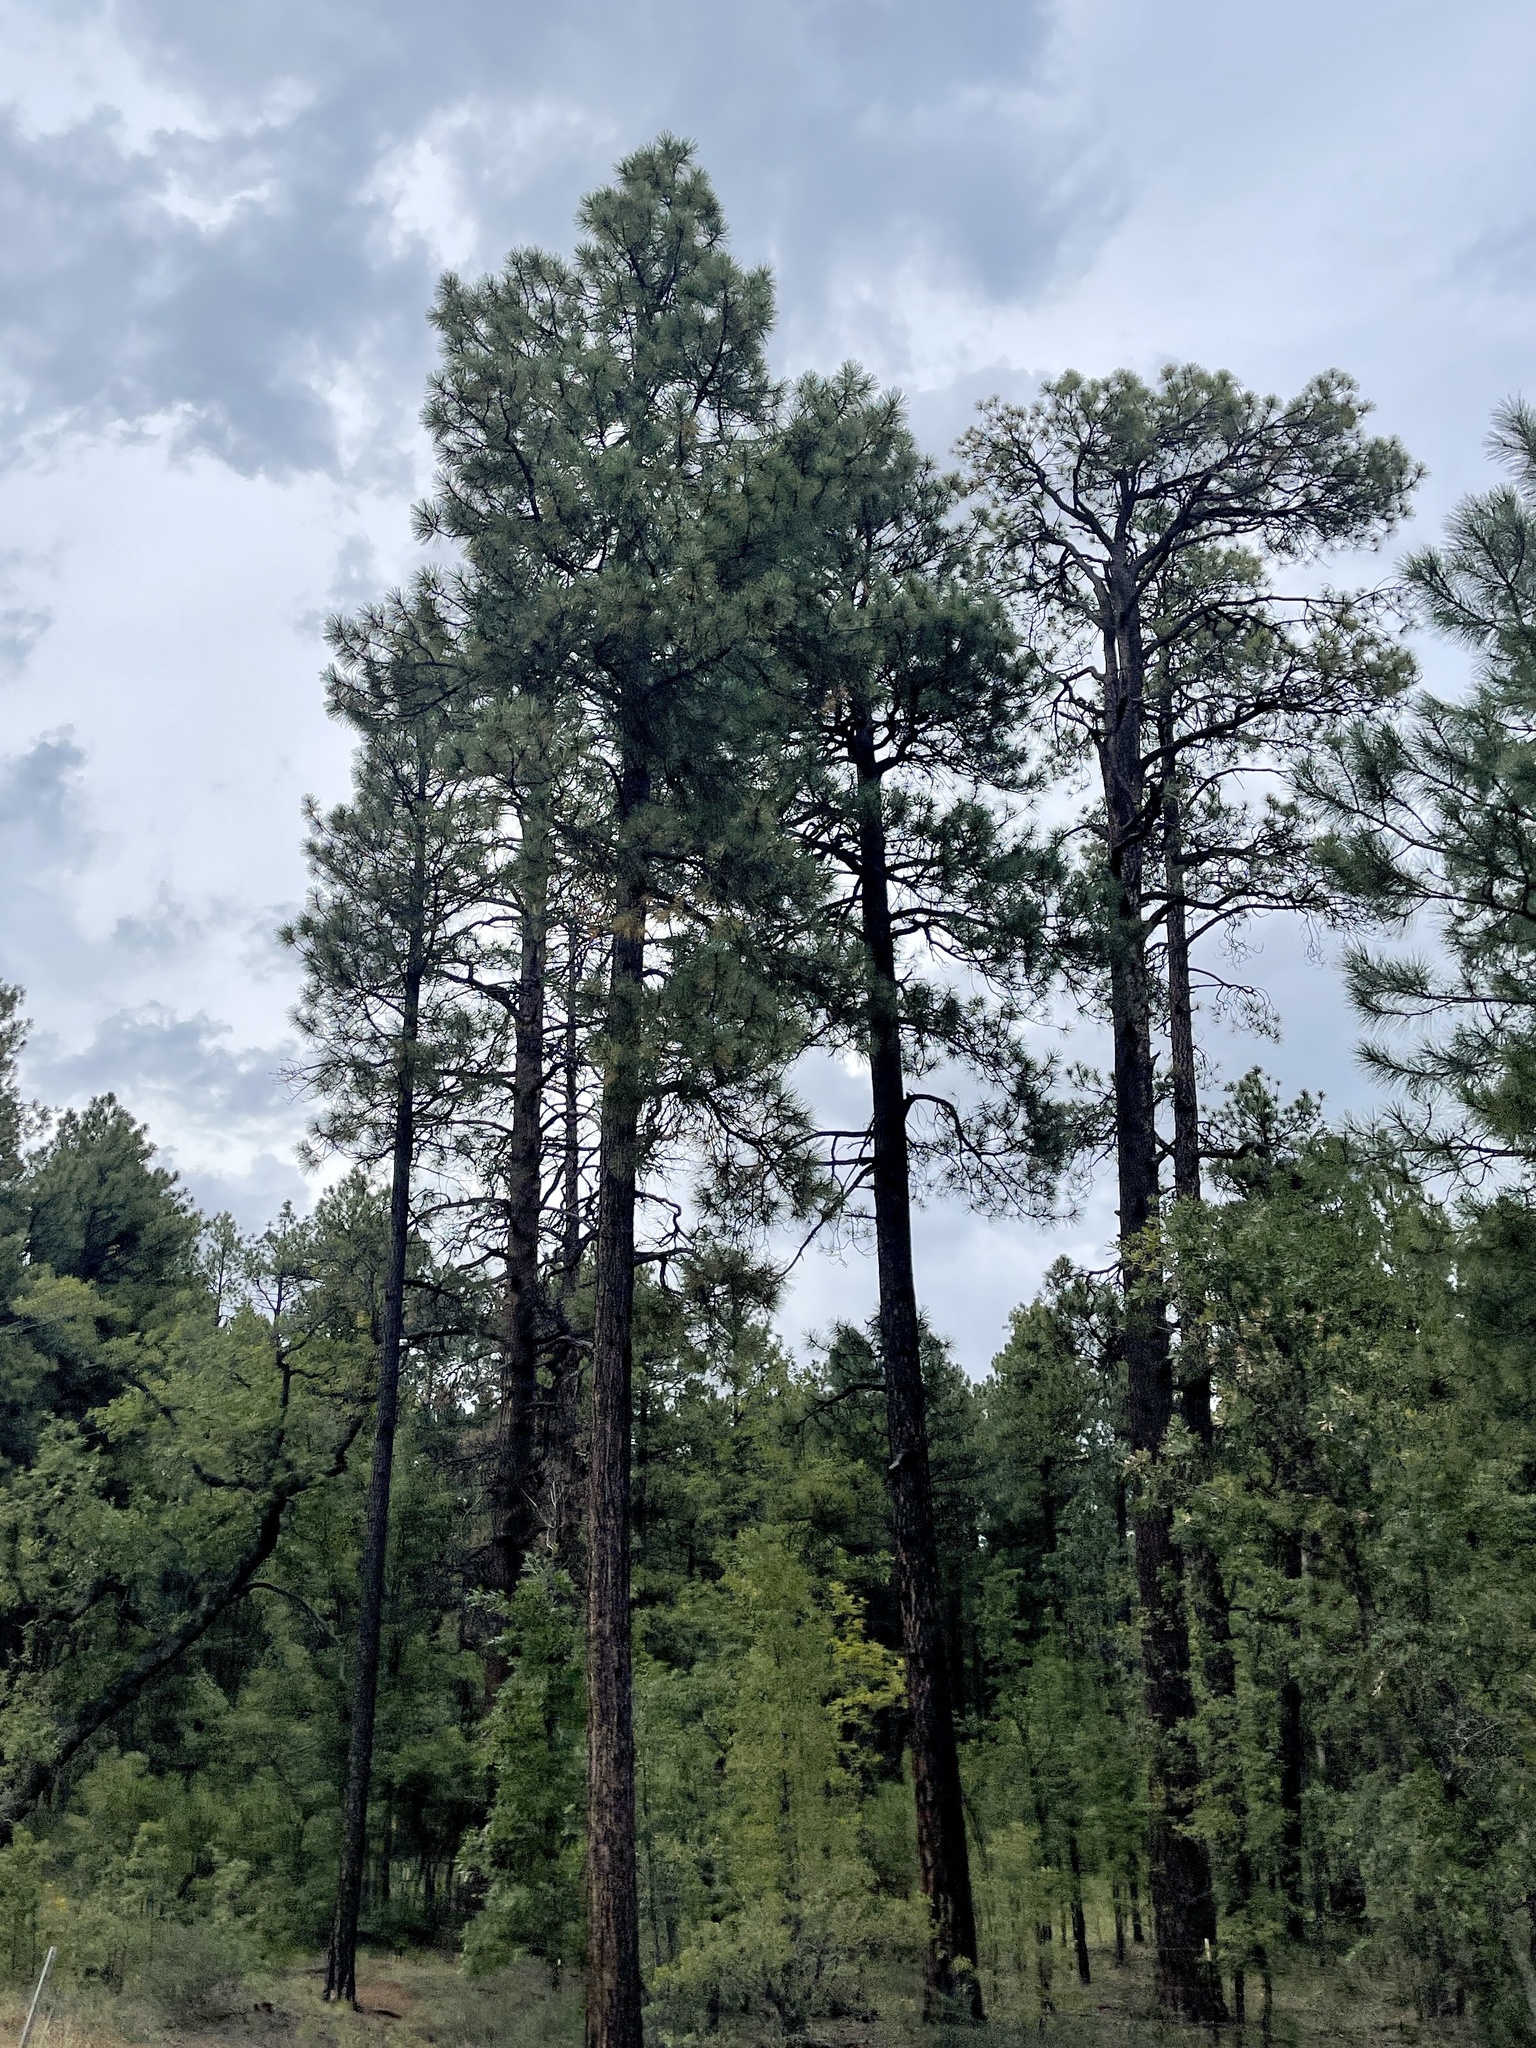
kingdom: Plantae
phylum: Tracheophyta
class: Pinopsida
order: Pinales
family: Pinaceae
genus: Pinus
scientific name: Pinus ponderosa
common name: Western yellow-pine
